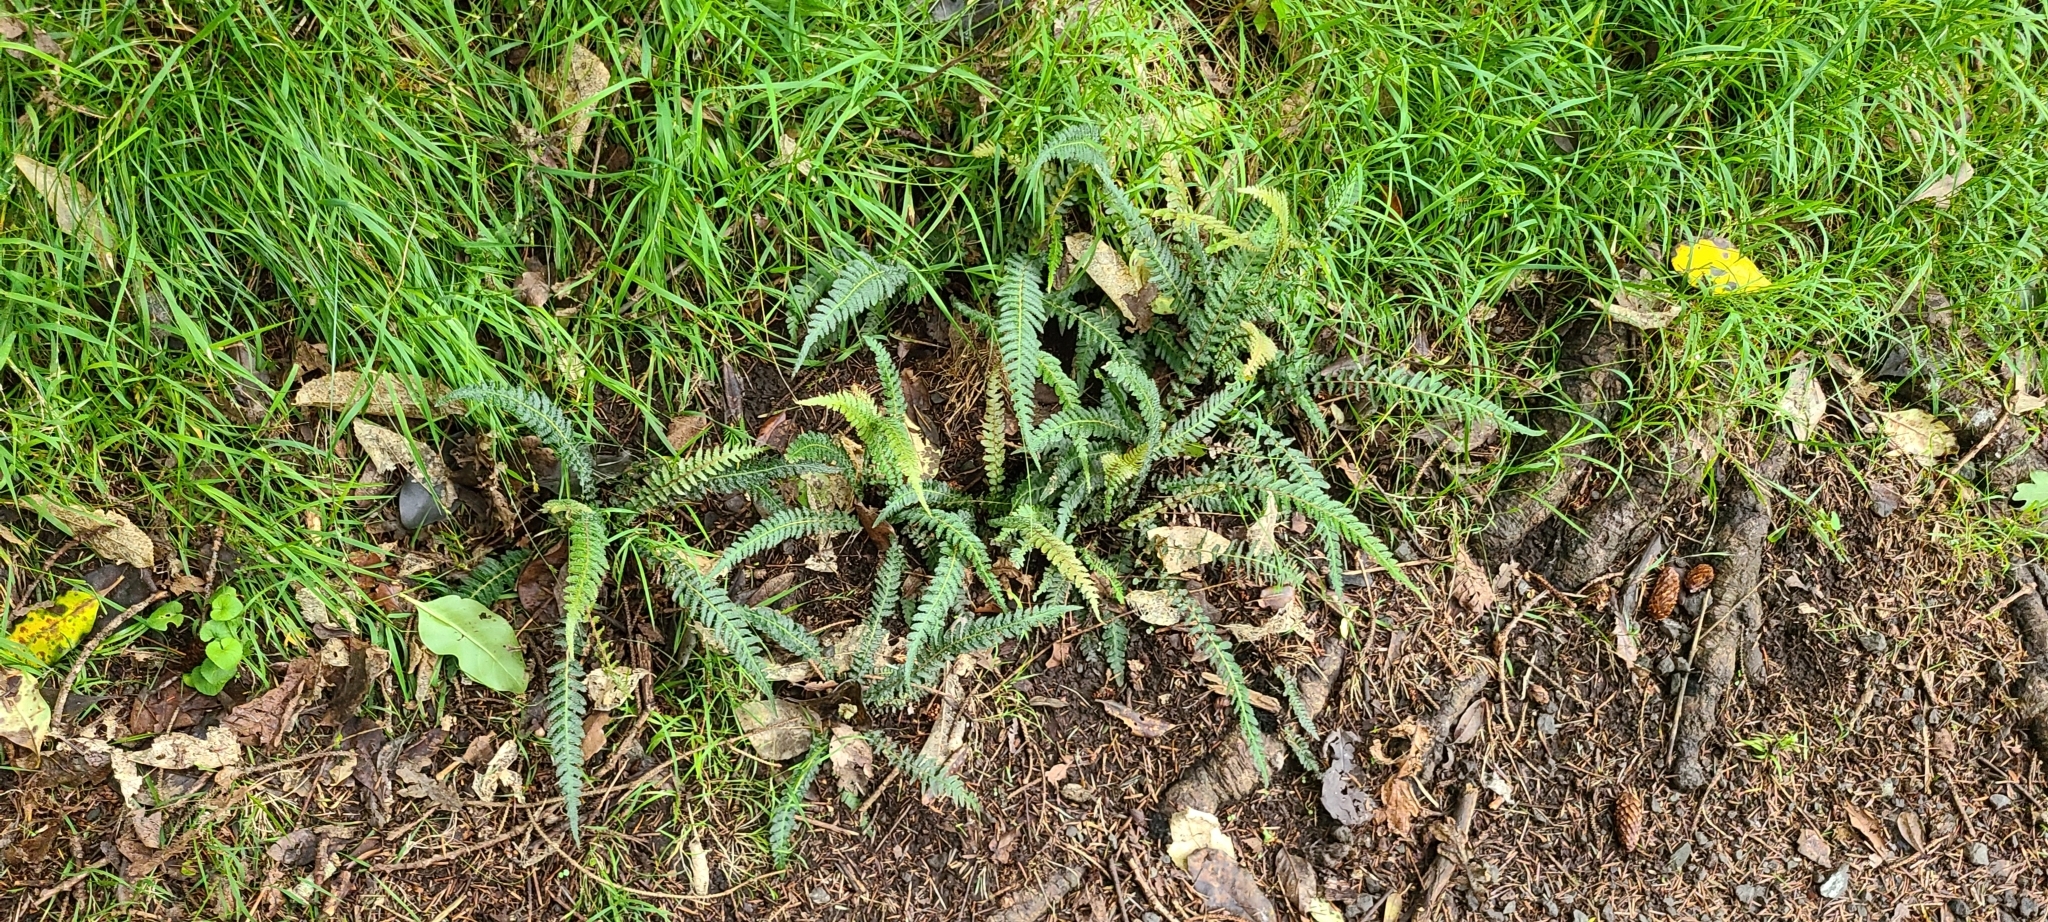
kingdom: Plantae
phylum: Tracheophyta
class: Polypodiopsida
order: Polypodiales
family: Blechnaceae
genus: Doodia
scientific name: Doodia australis
